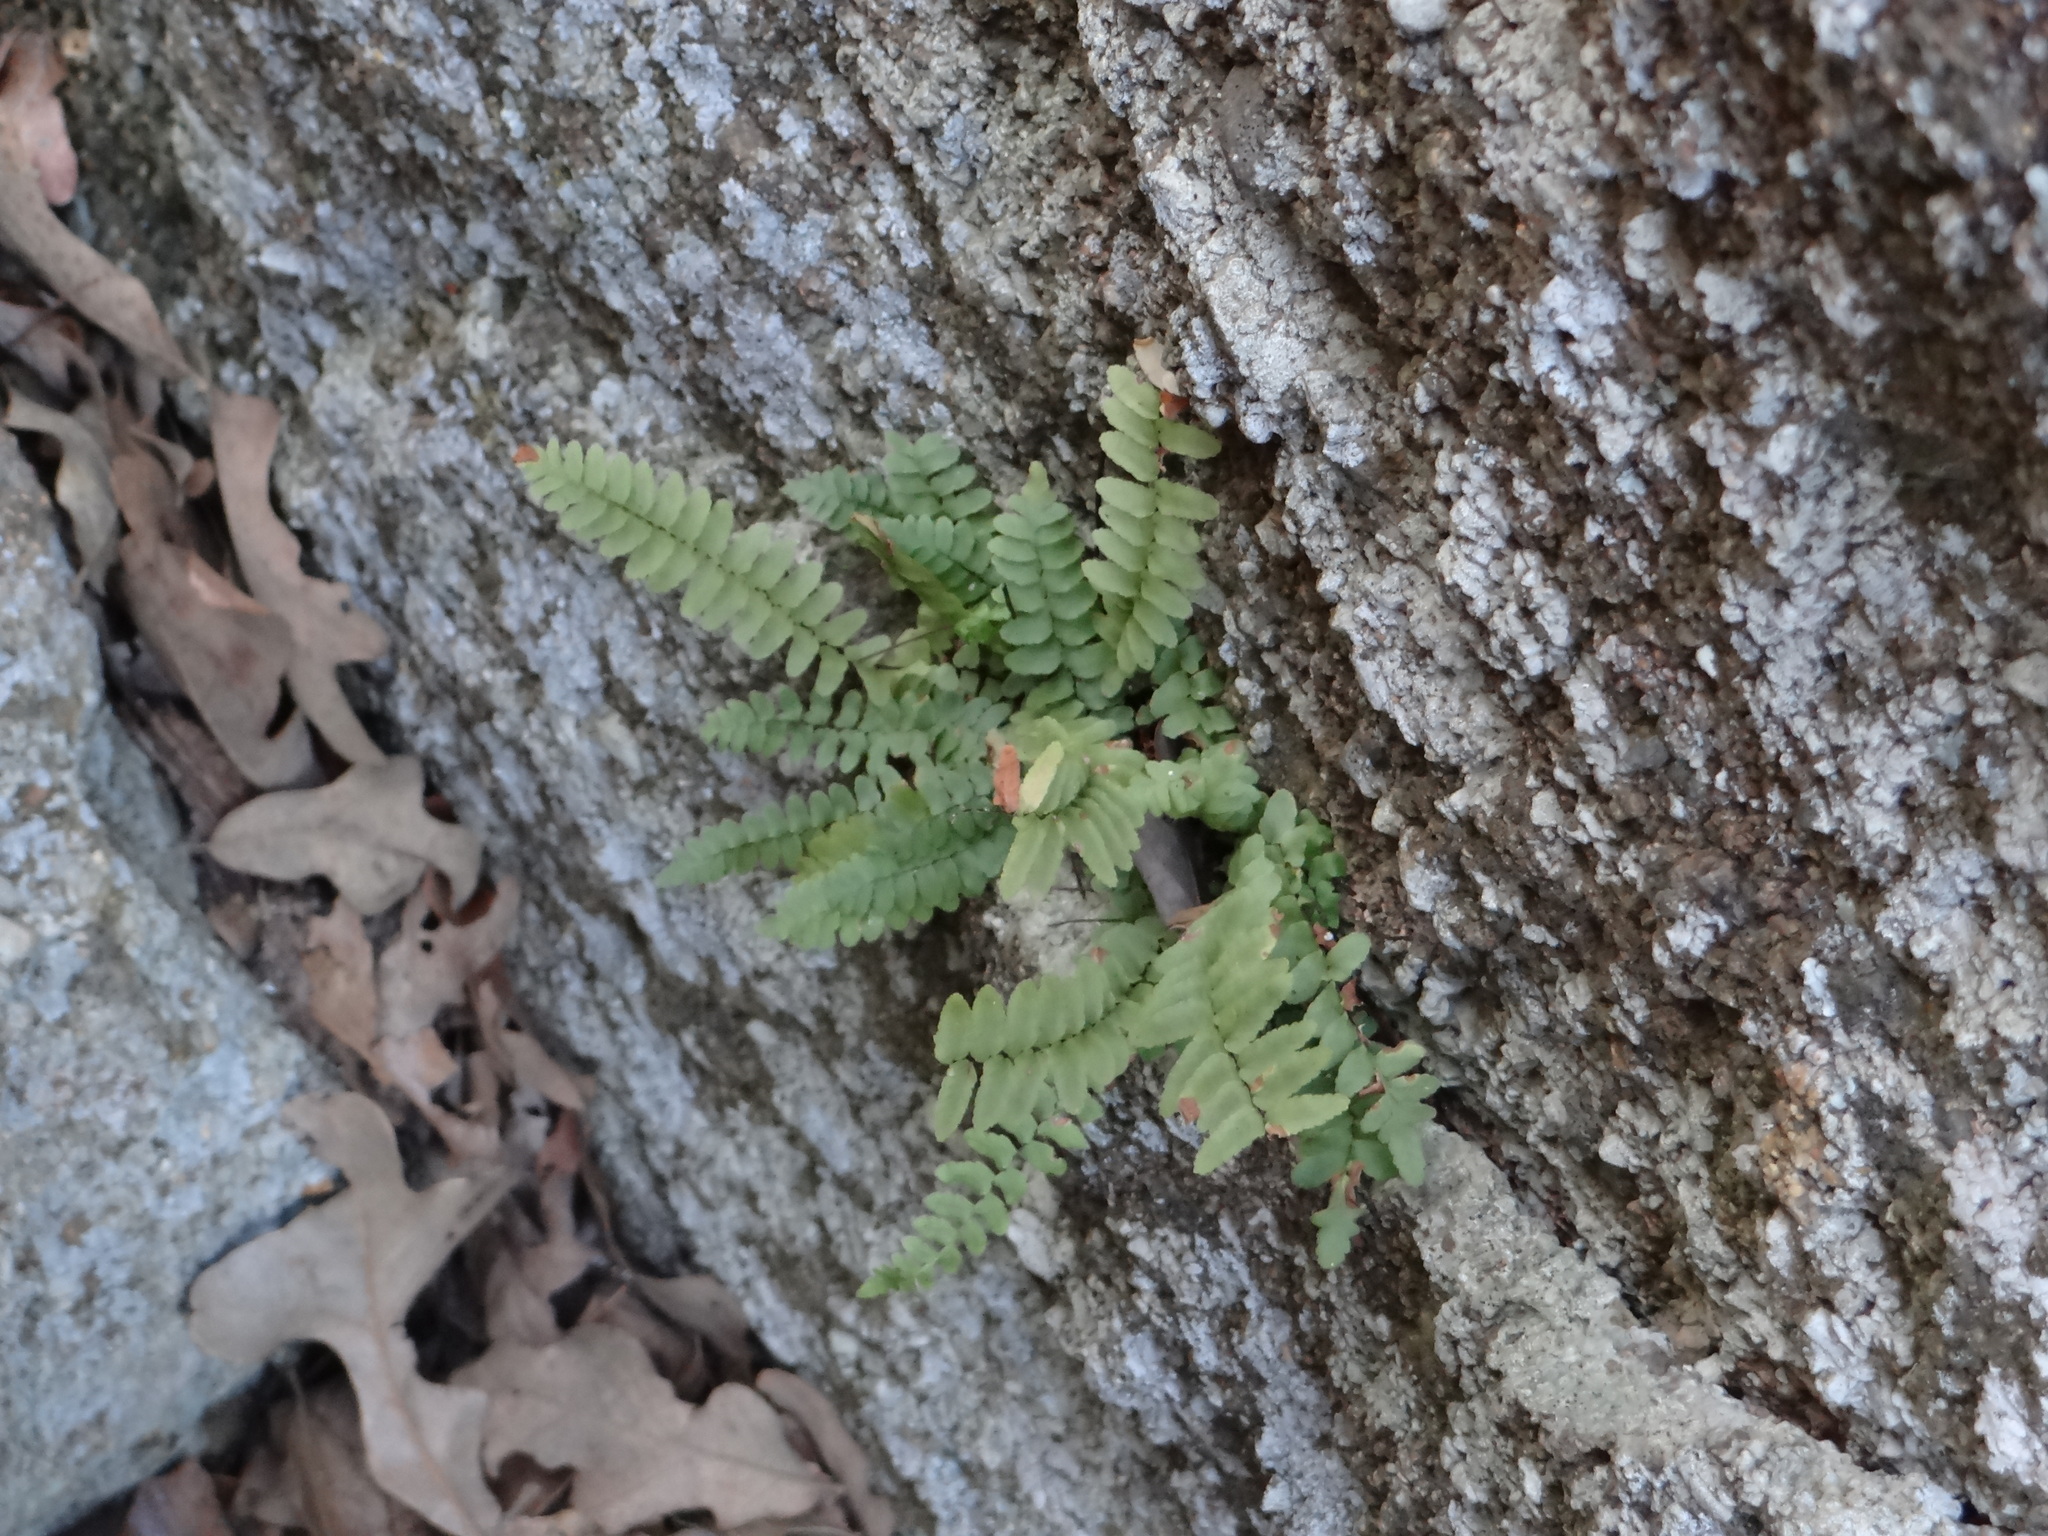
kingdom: Plantae
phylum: Tracheophyta
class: Polypodiopsida
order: Polypodiales
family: Aspleniaceae
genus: Asplenium
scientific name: Asplenium platyneuron
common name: Ebony spleenwort
